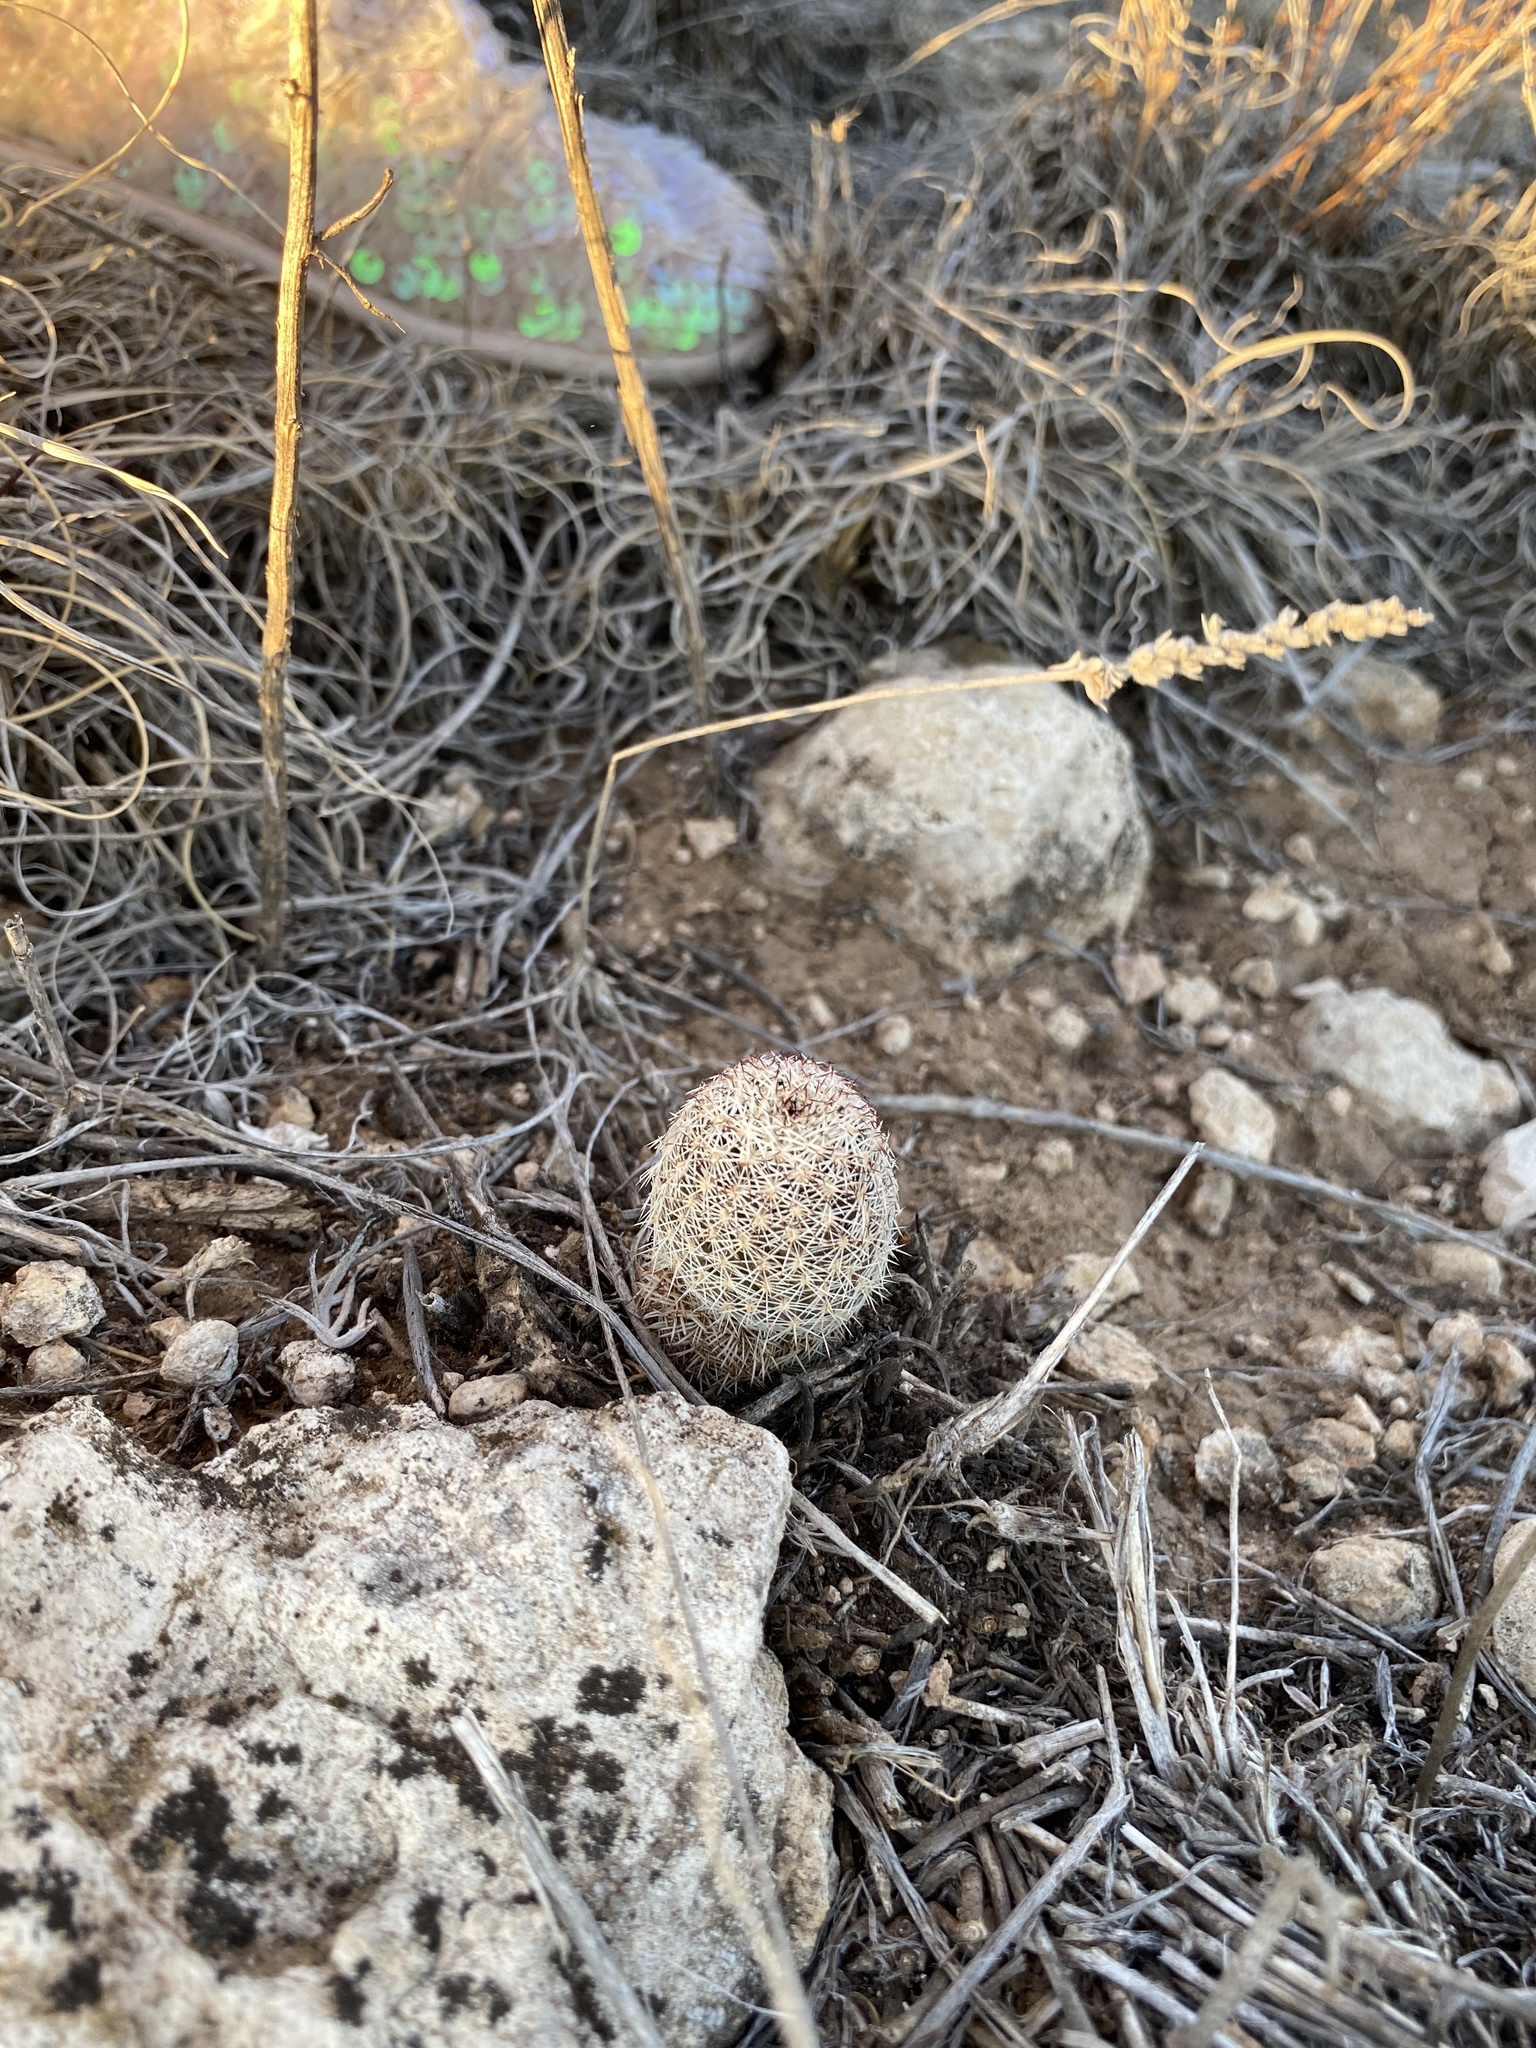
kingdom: Plantae
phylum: Tracheophyta
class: Magnoliopsida
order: Caryophyllales
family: Cactaceae
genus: Echinocereus
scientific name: Echinocereus reichenbachii
